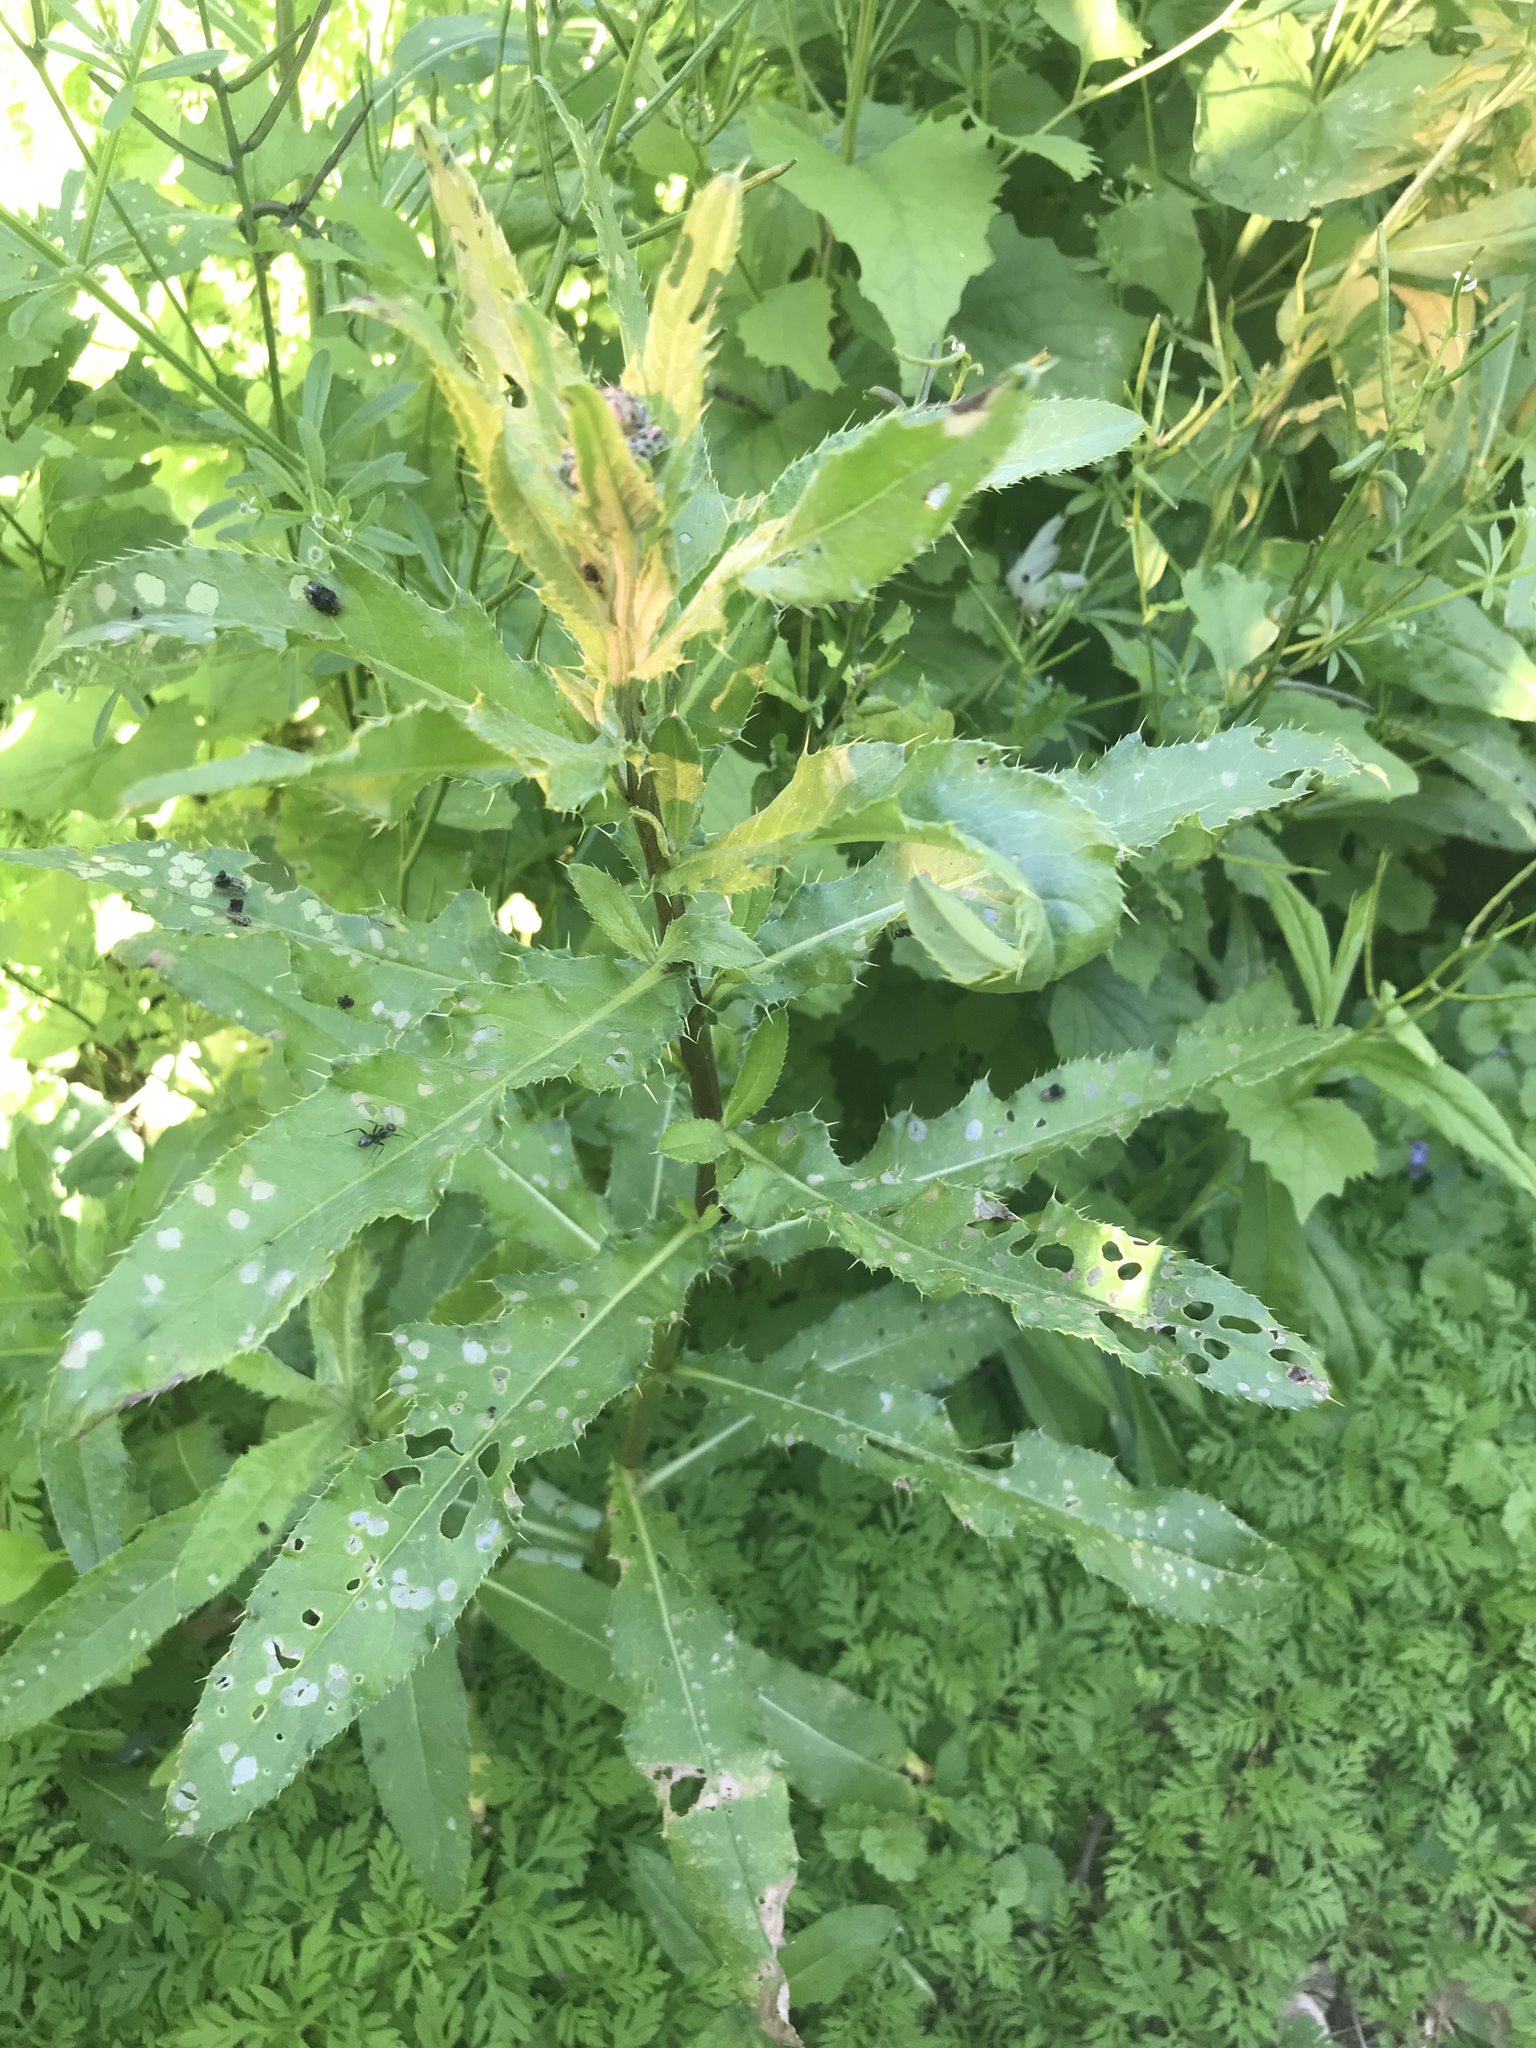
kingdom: Plantae
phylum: Tracheophyta
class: Magnoliopsida
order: Asterales
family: Asteraceae
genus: Cirsium
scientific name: Cirsium arvense
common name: Creeping thistle
